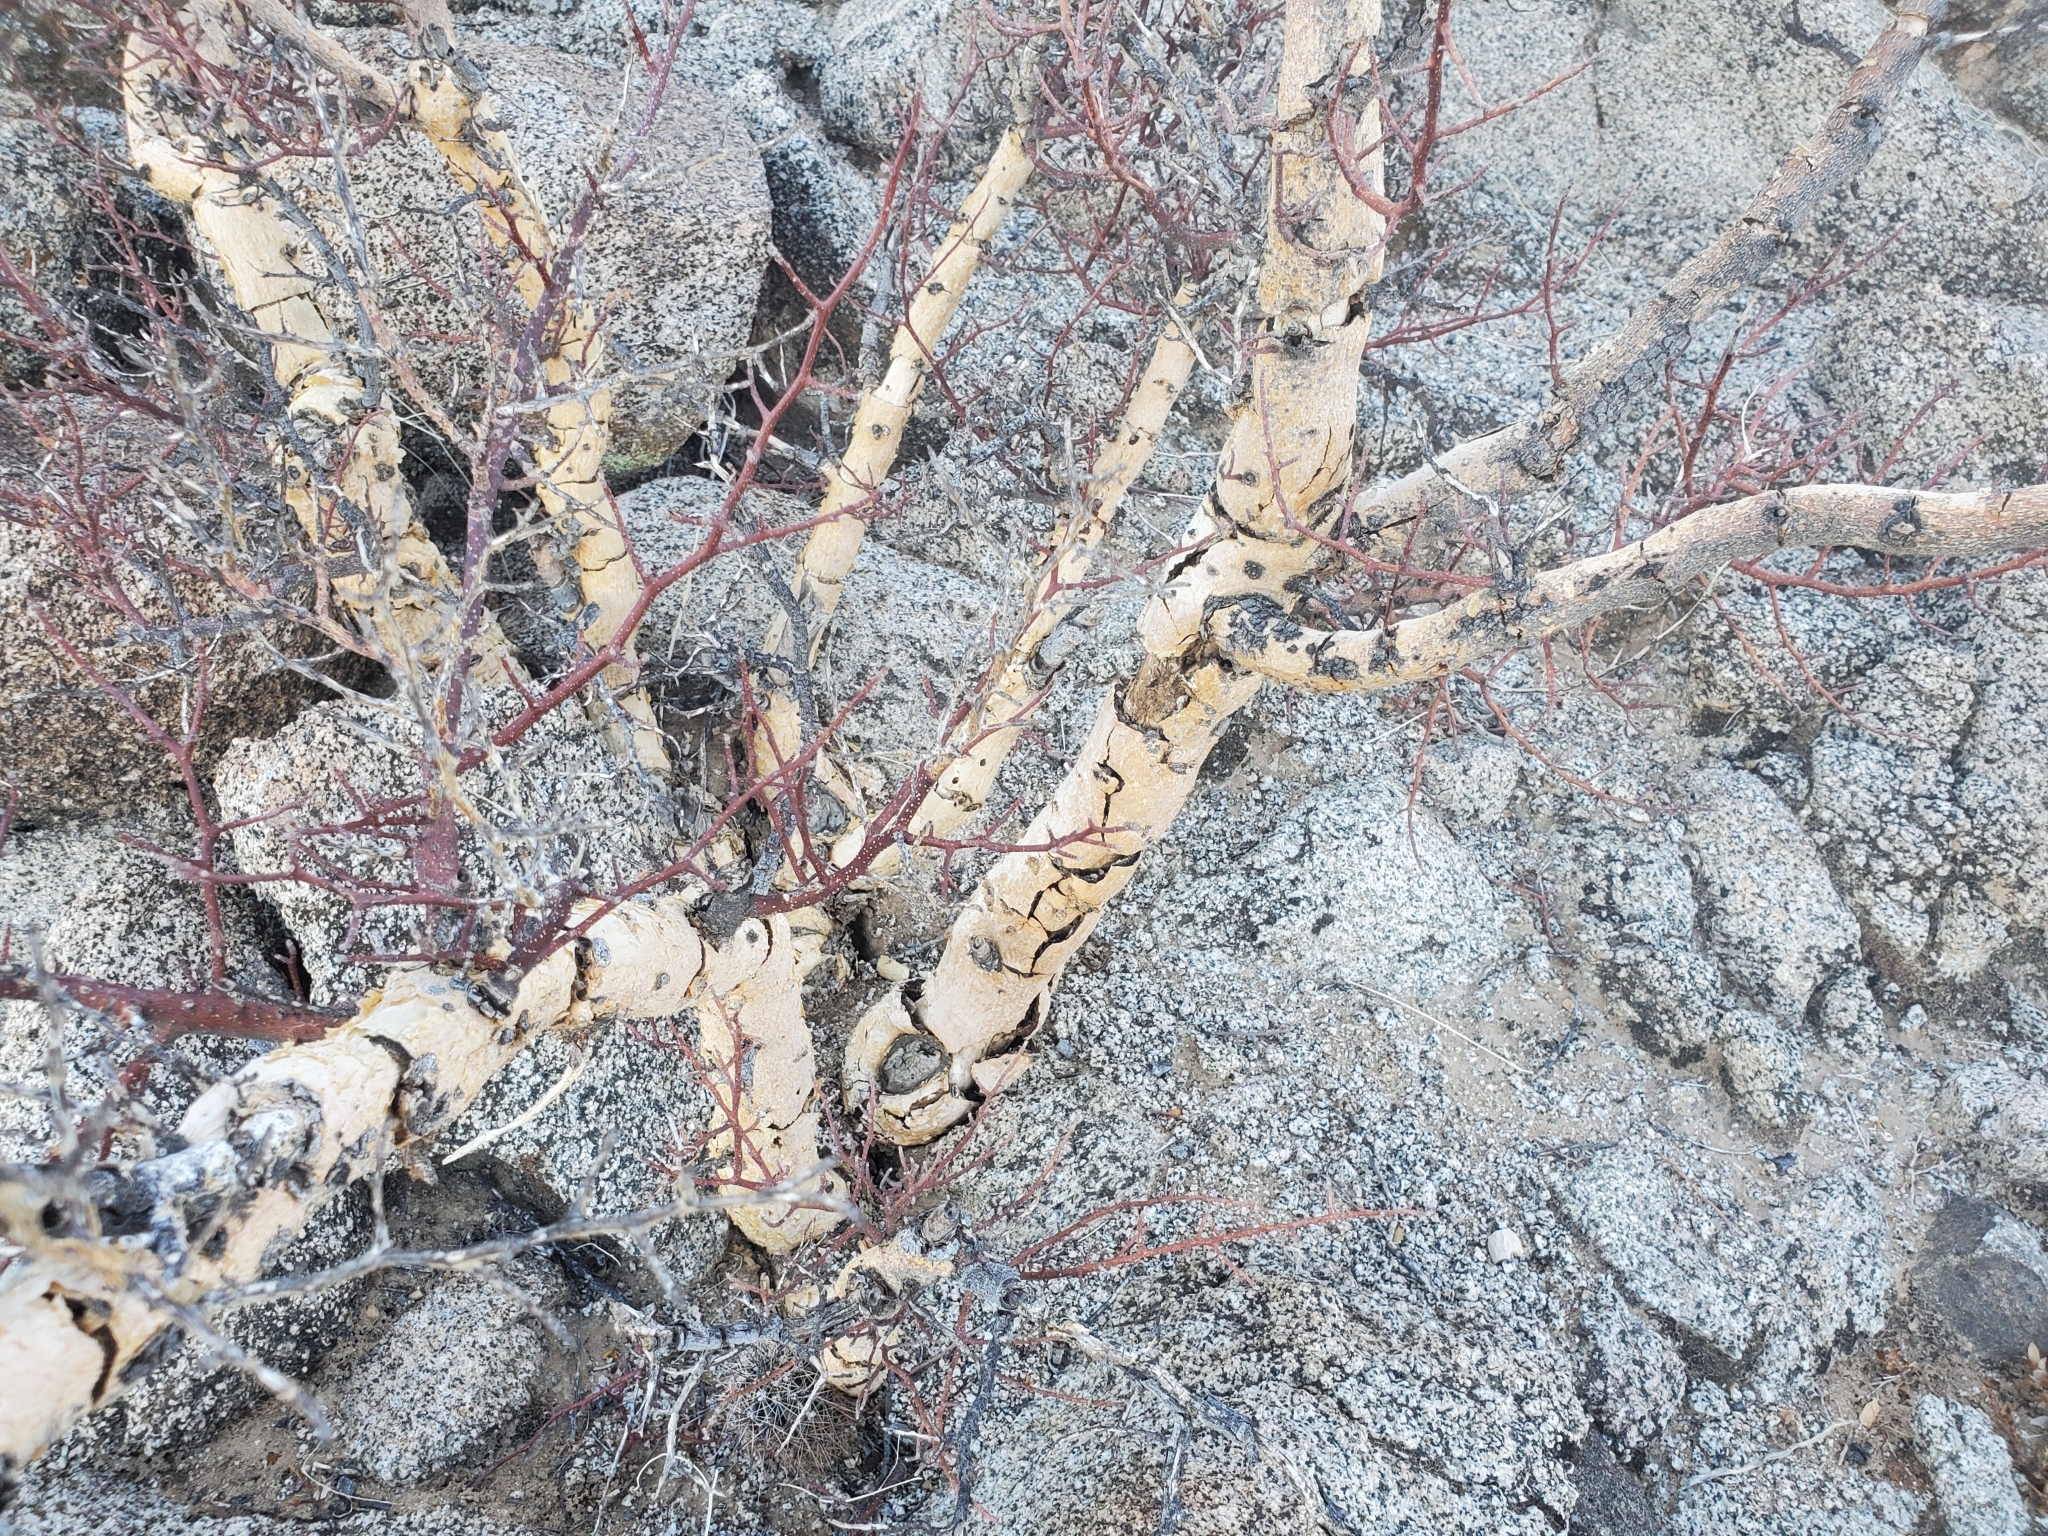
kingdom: Plantae
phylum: Tracheophyta
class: Magnoliopsida
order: Sapindales
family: Burseraceae
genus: Bursera
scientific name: Bursera microphylla
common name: Elephant tree
